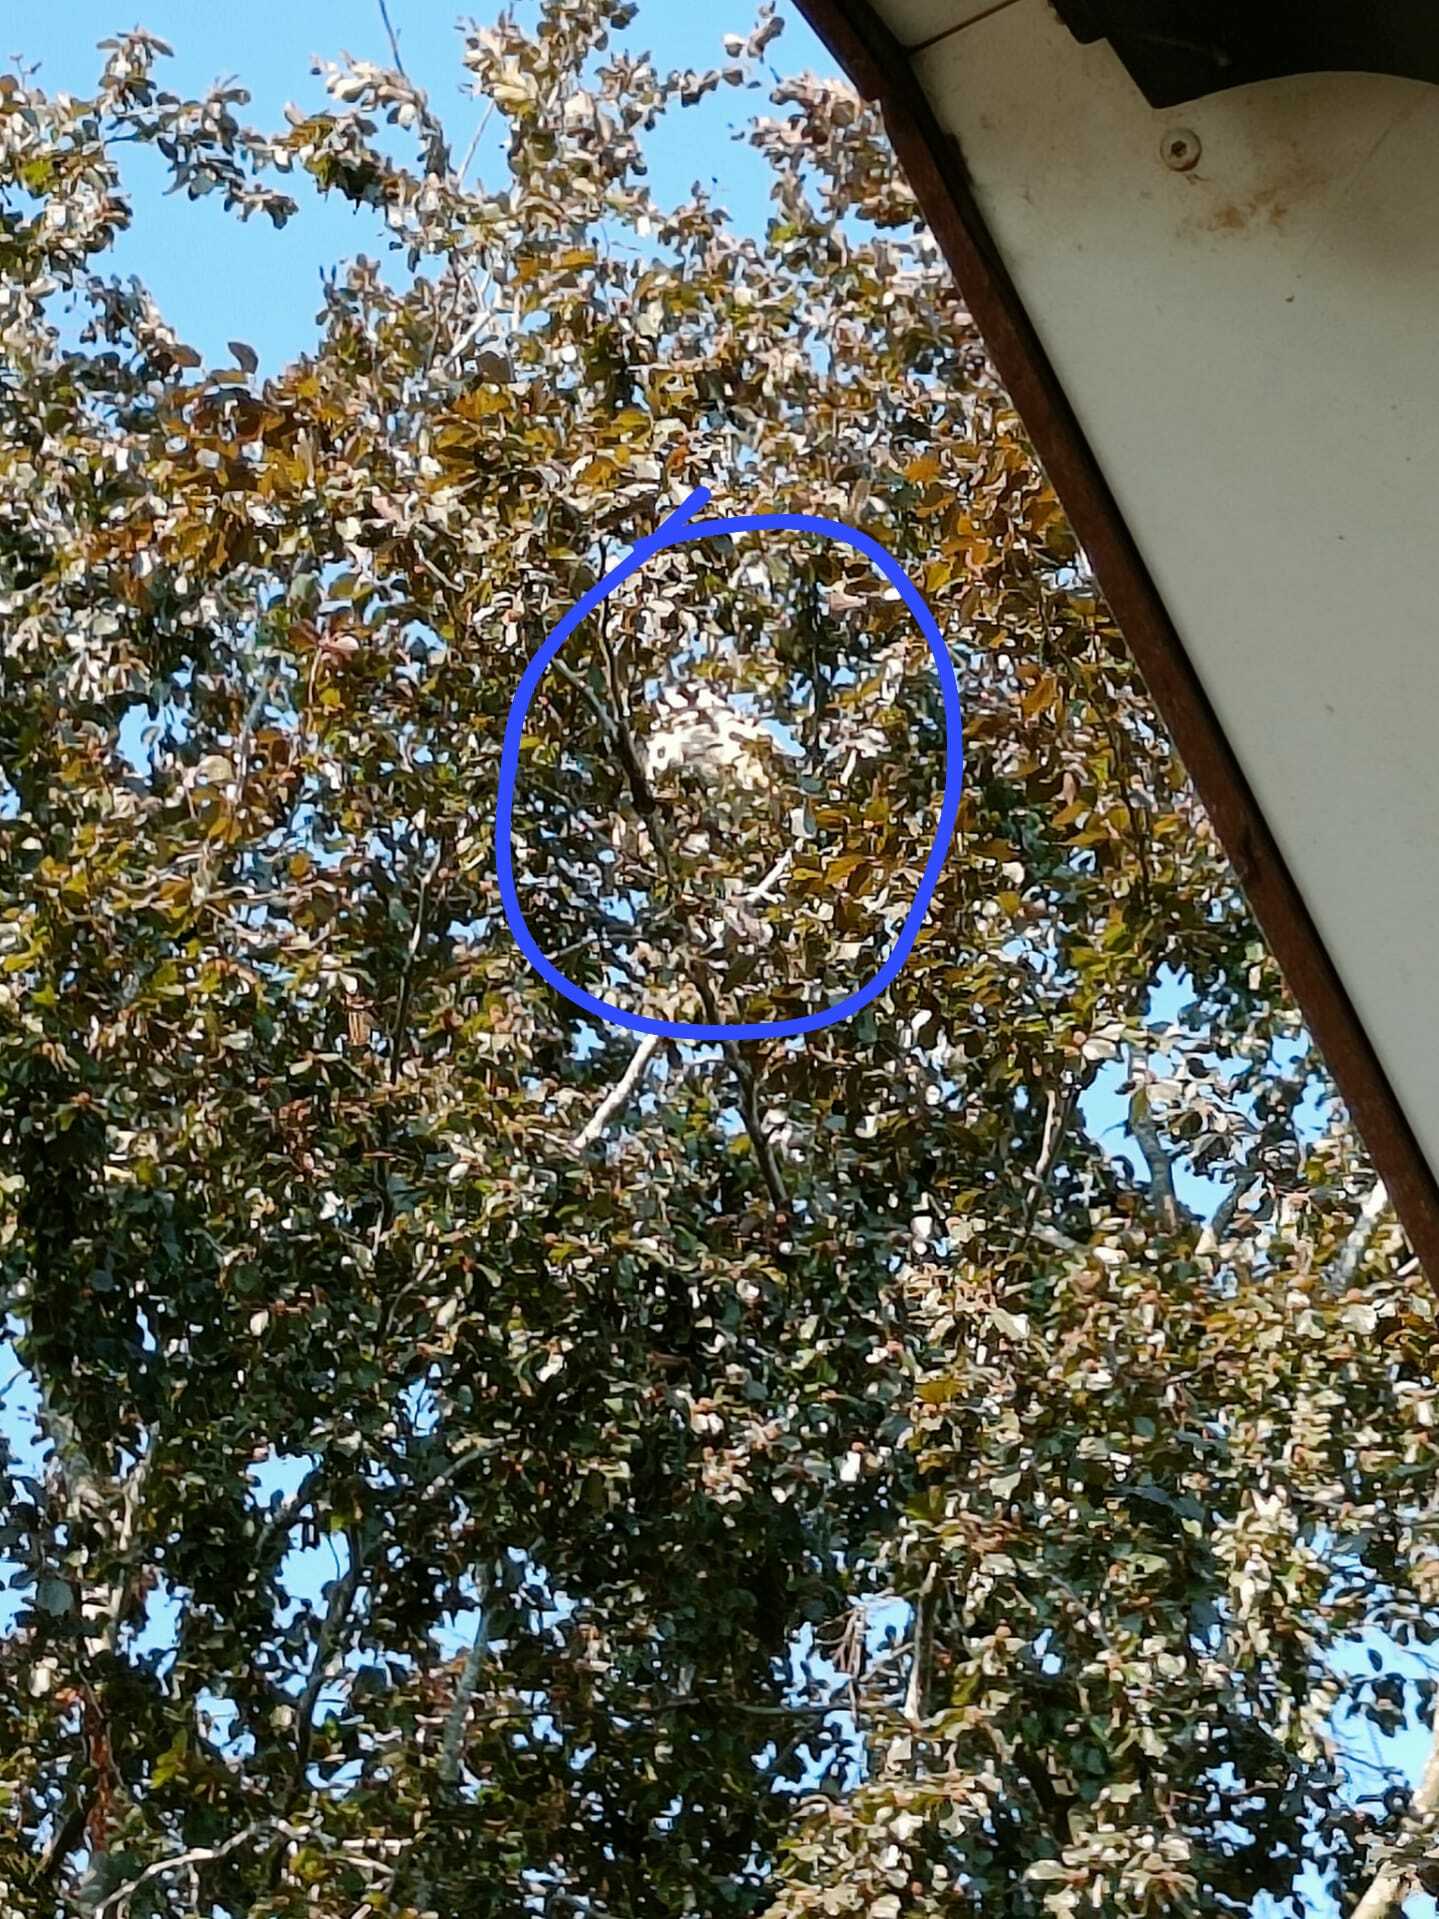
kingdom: Animalia
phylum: Arthropoda
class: Insecta
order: Hymenoptera
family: Vespidae
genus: Vespa
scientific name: Vespa velutina
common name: Asian hornet
